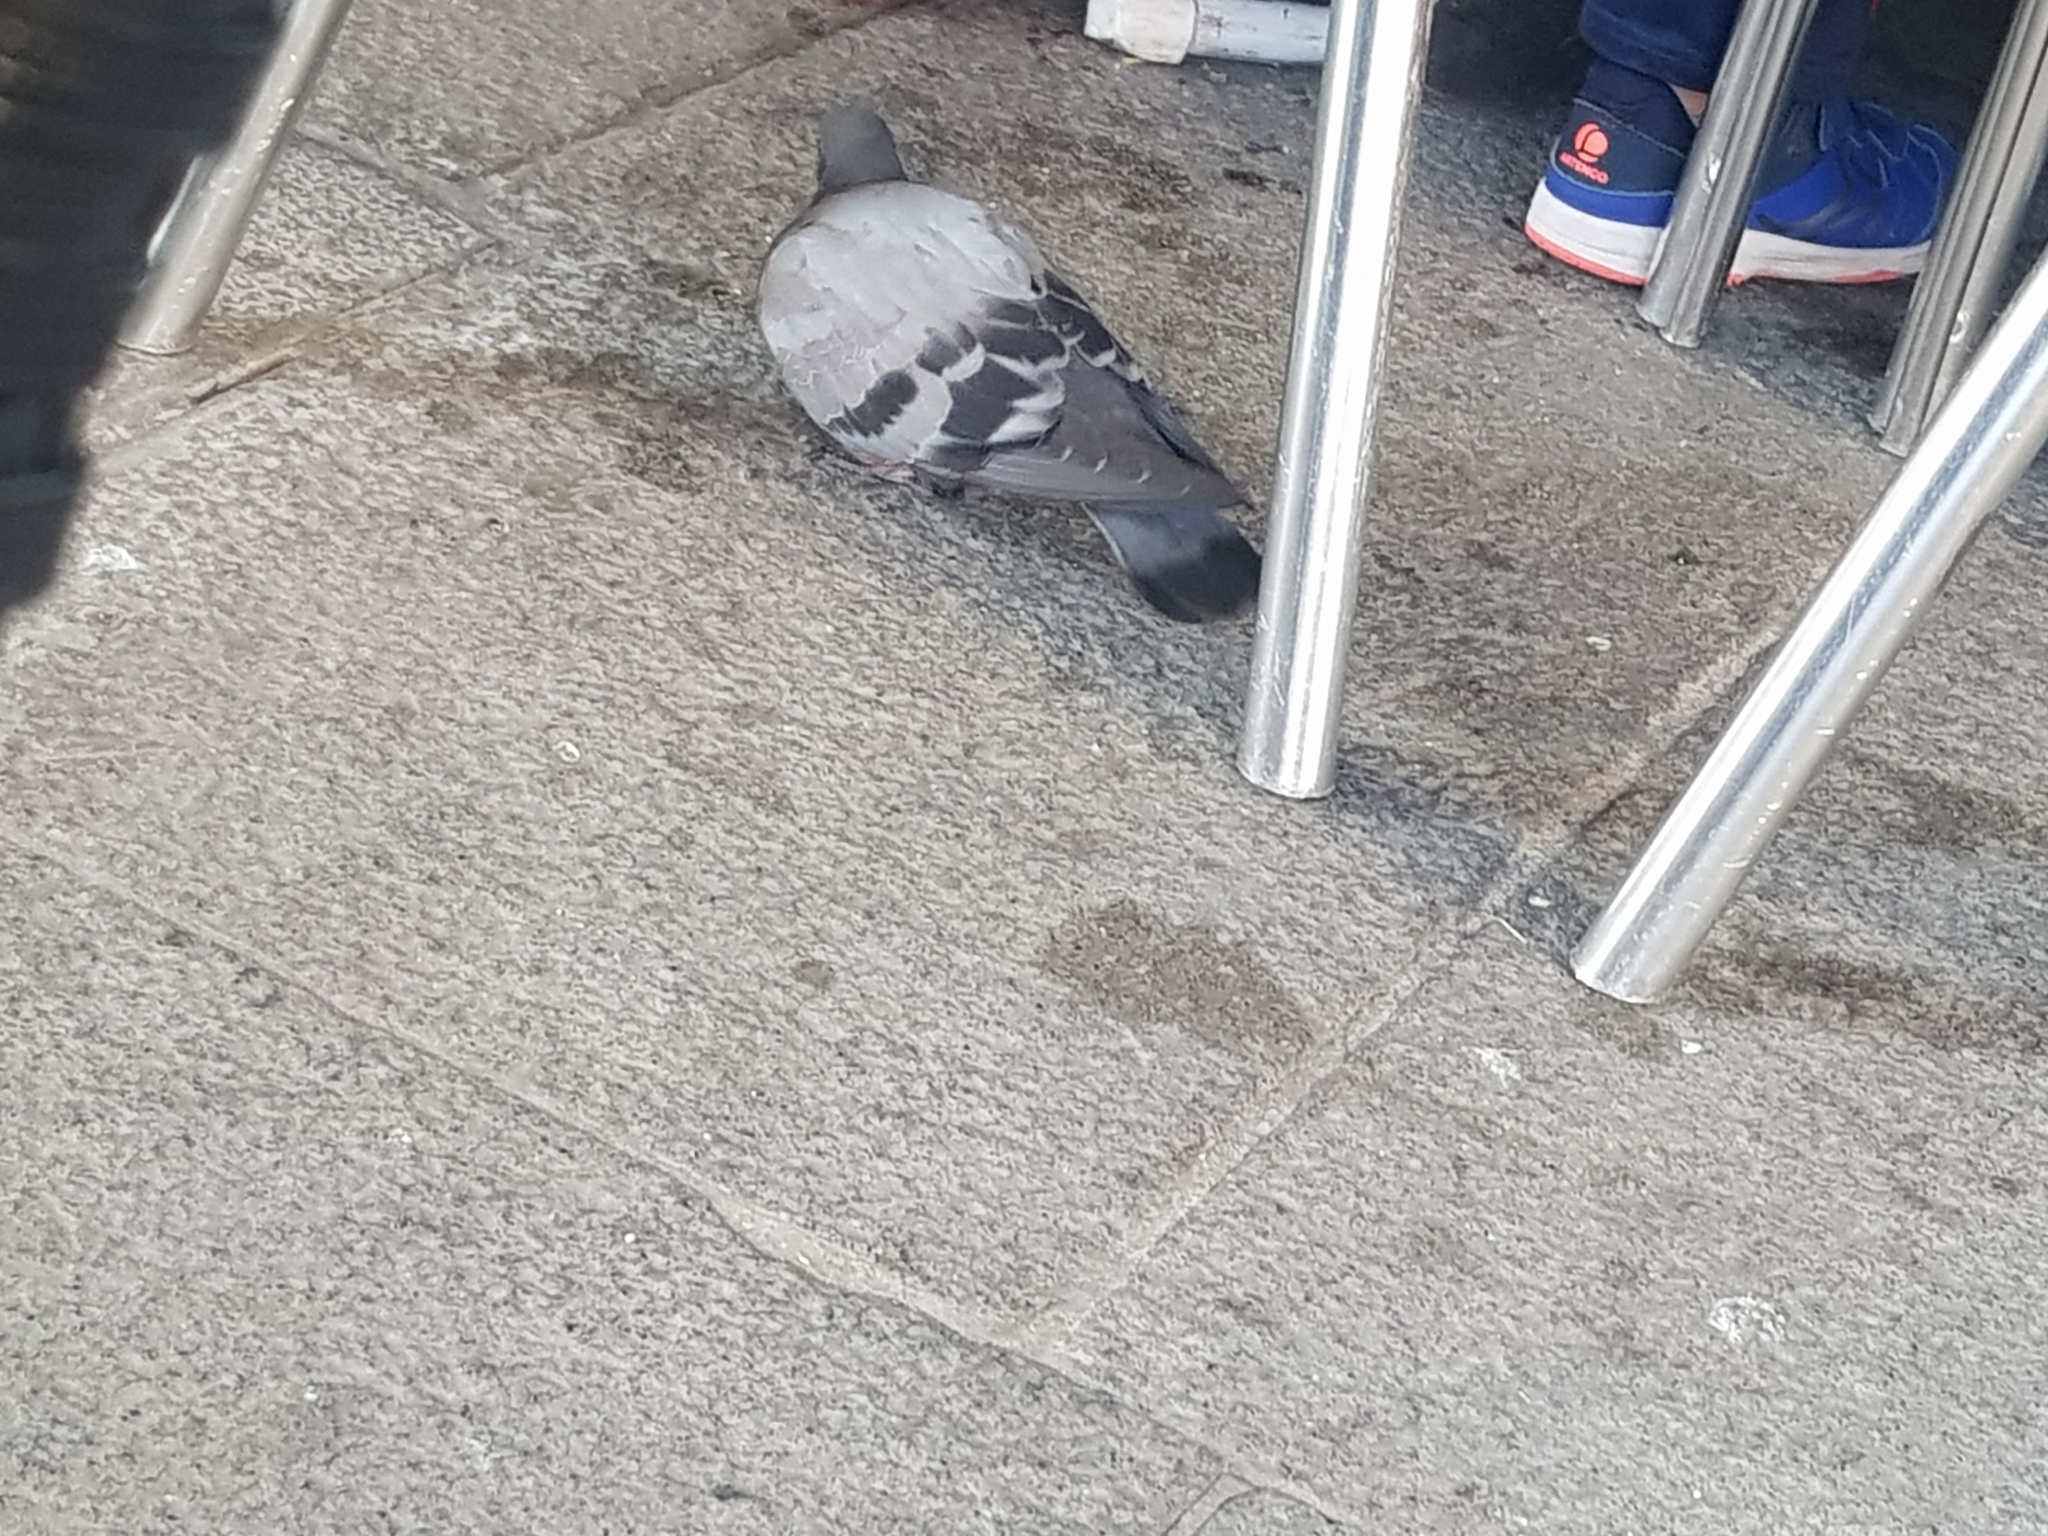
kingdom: Animalia
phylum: Chordata
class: Aves
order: Columbiformes
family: Columbidae
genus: Columba
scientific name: Columba livia
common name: Rock pigeon
